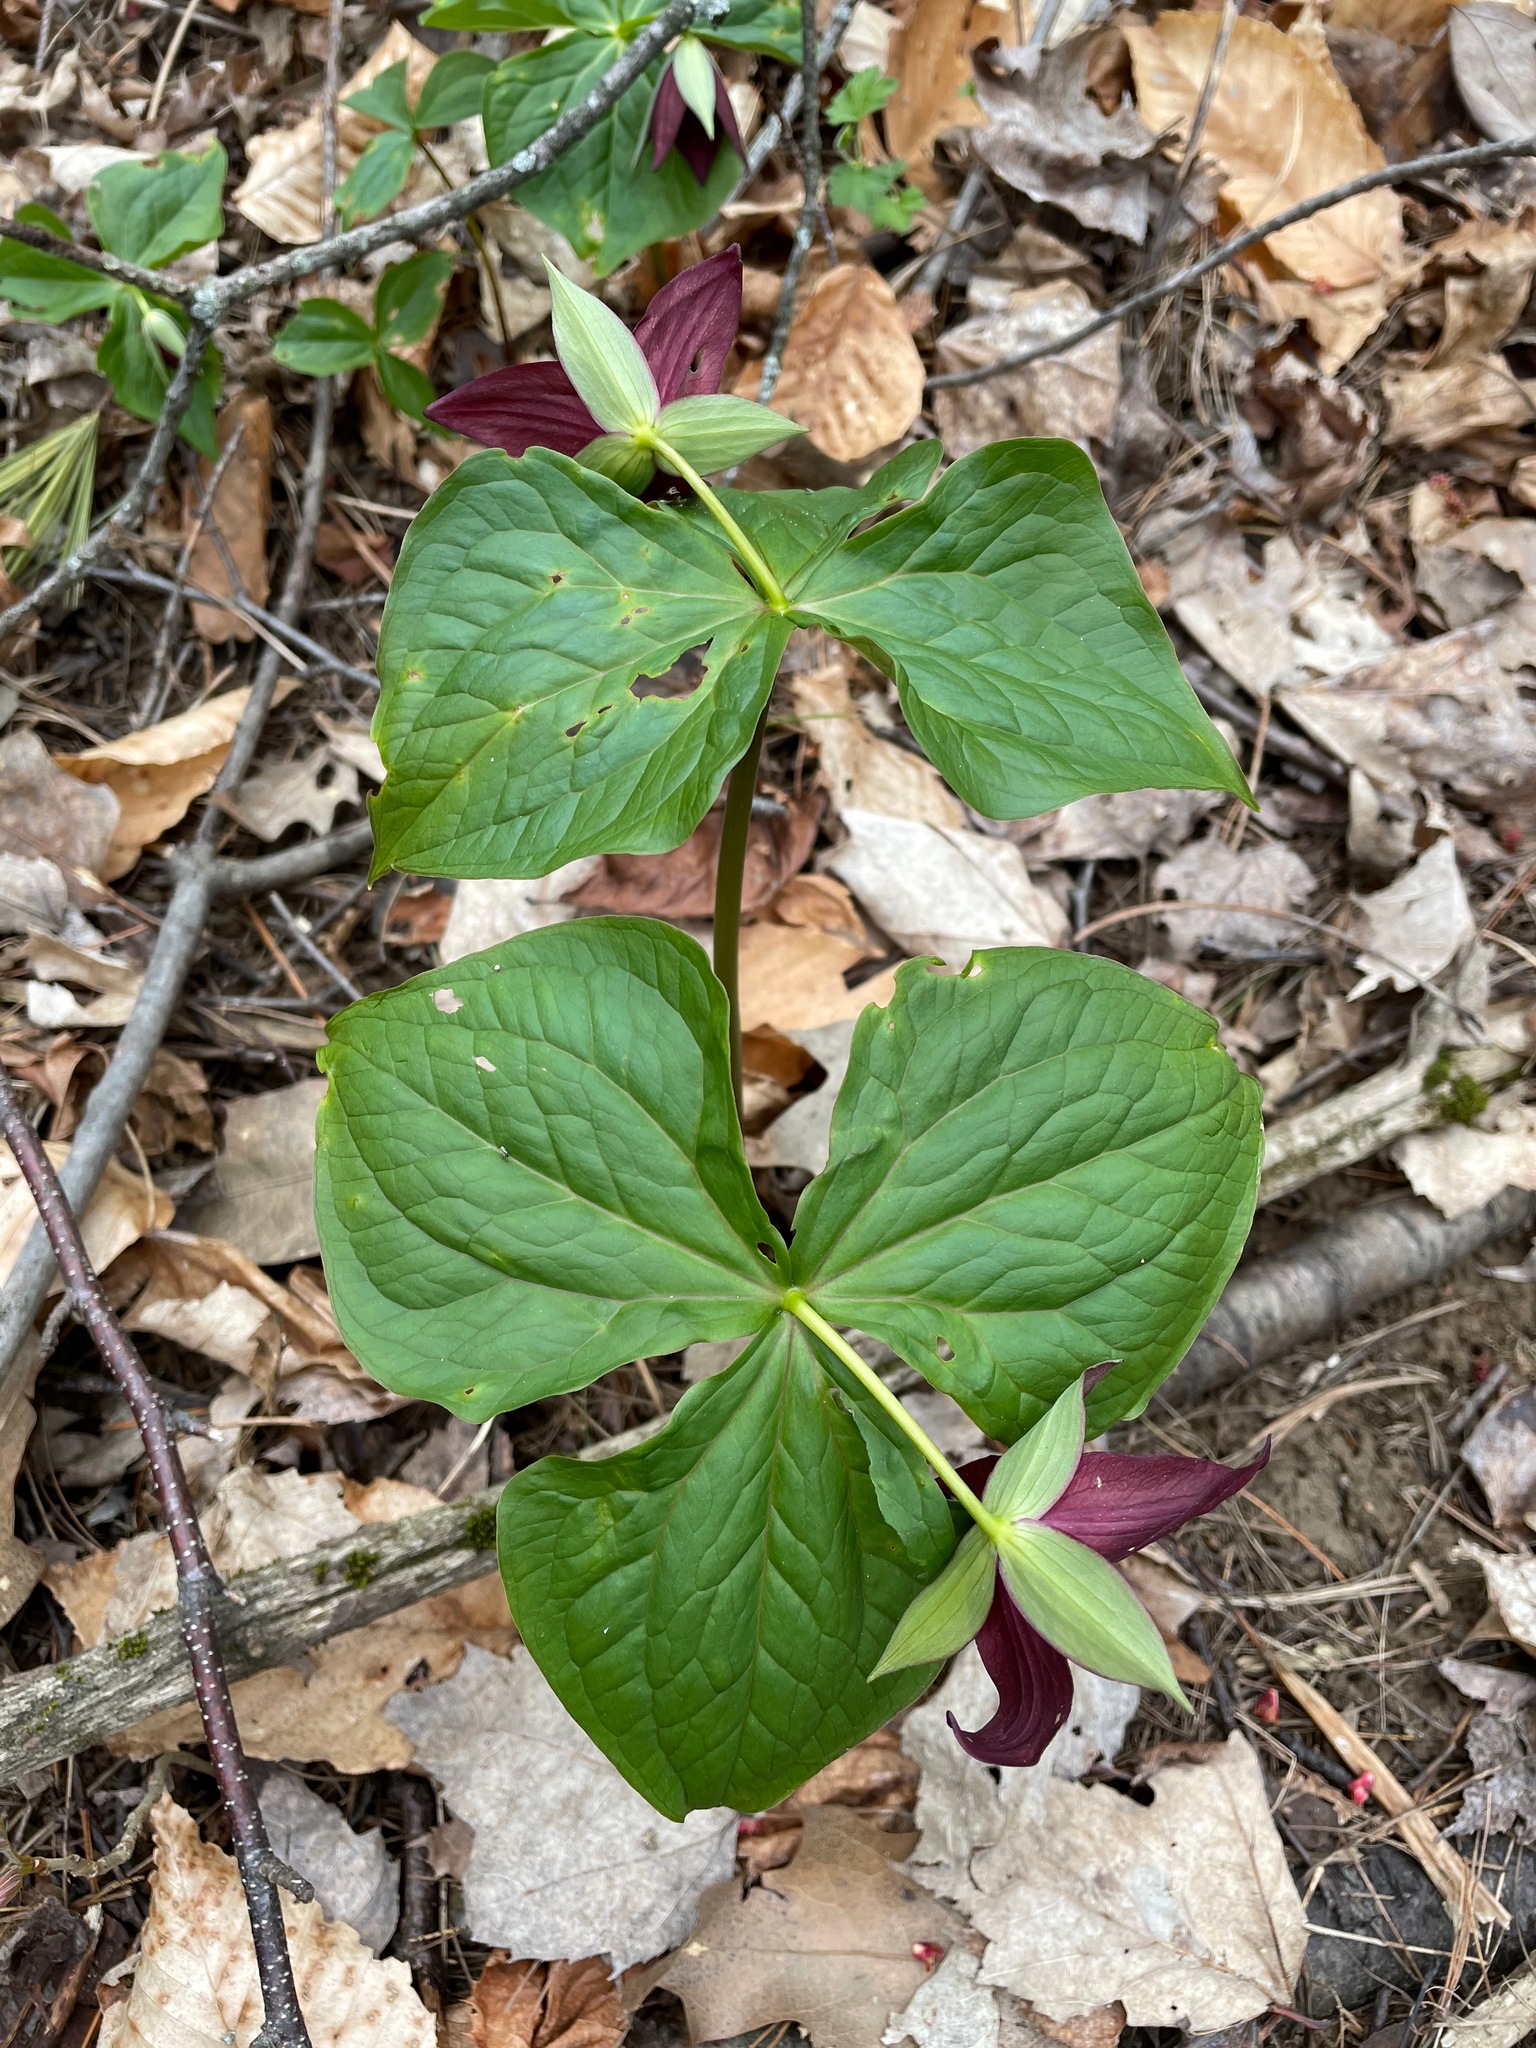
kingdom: Plantae
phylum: Tracheophyta
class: Liliopsida
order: Liliales
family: Melanthiaceae
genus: Trillium
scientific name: Trillium erectum
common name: Purple trillium
